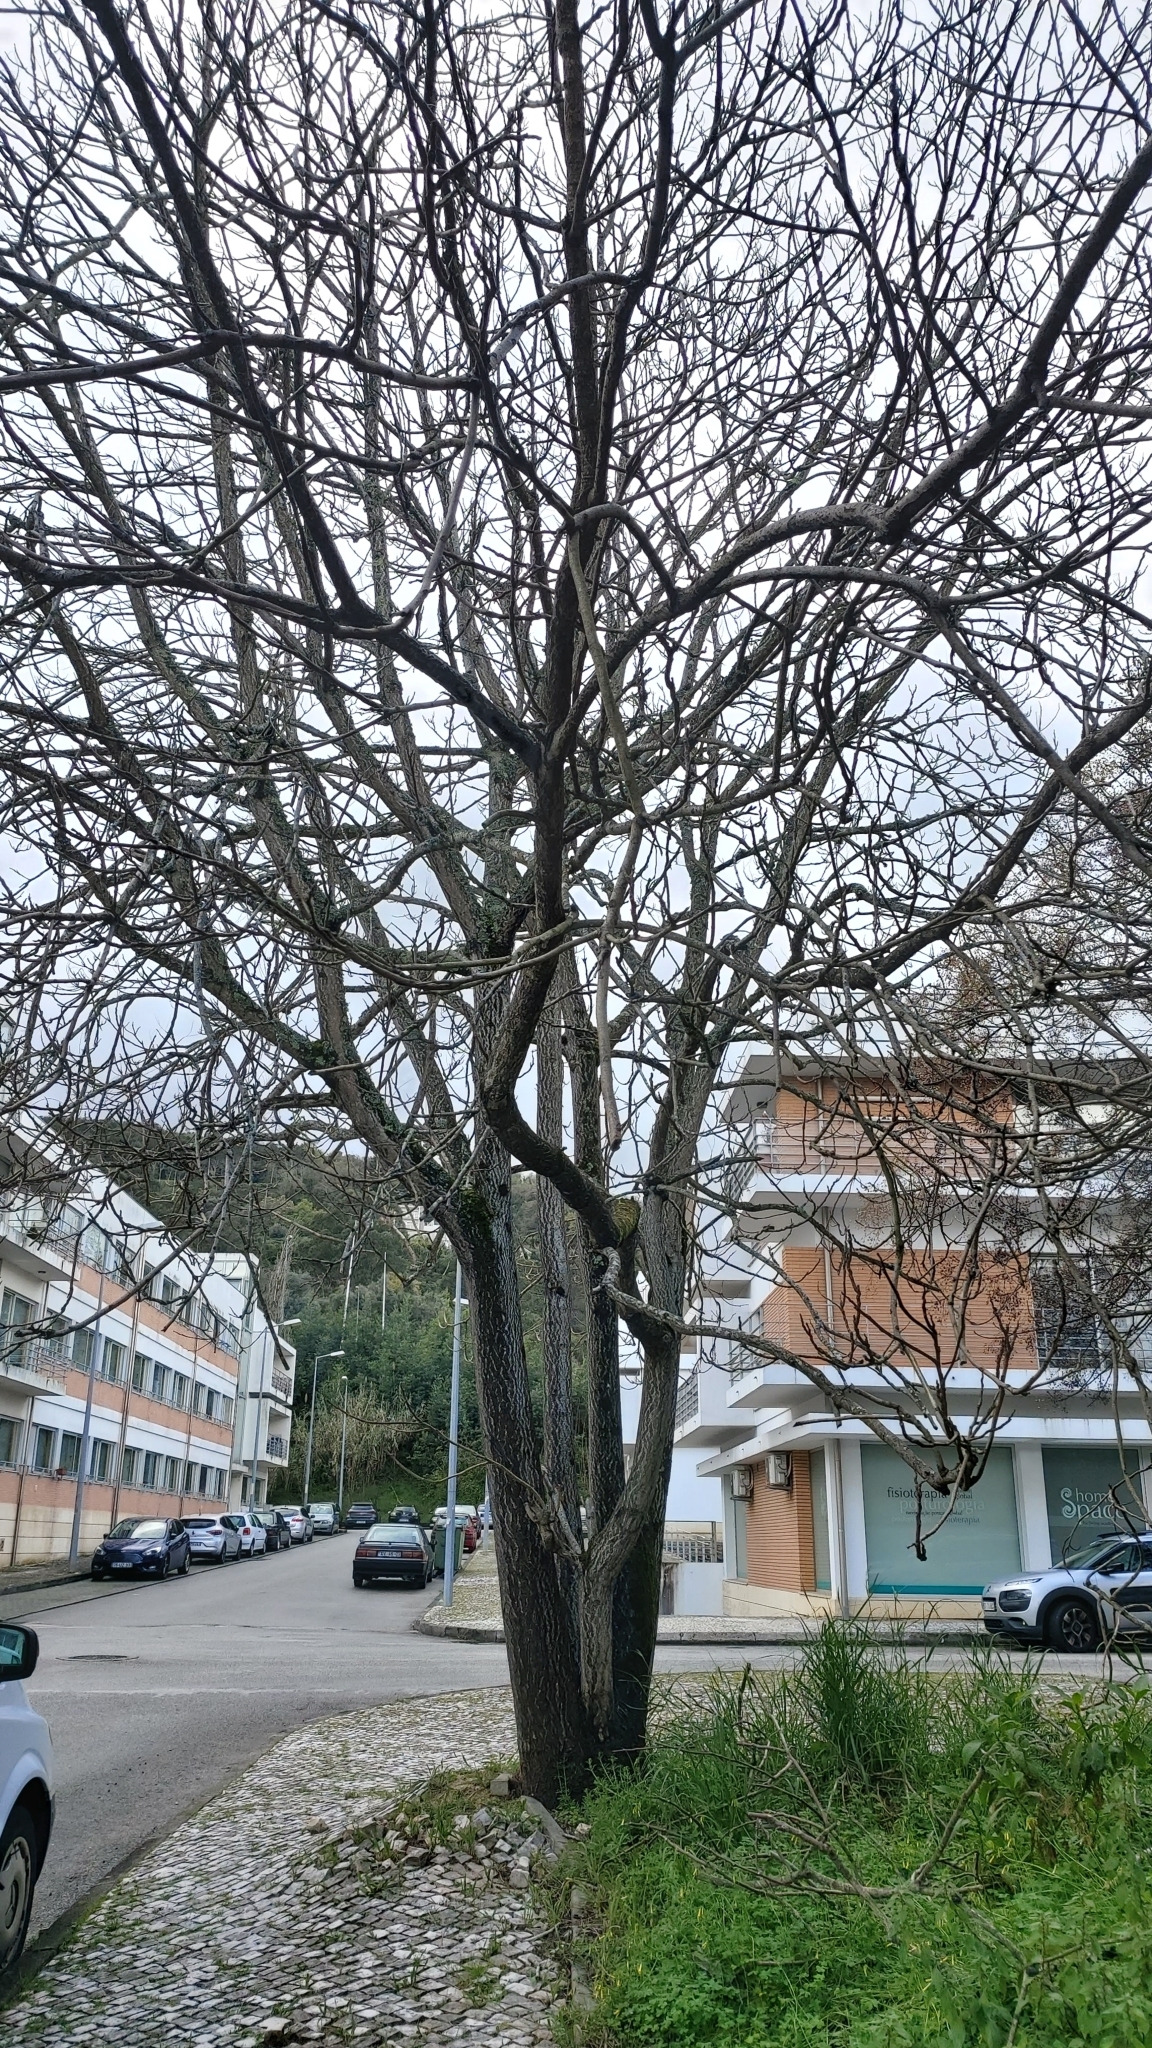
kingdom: Plantae
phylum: Tracheophyta
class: Magnoliopsida
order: Sapindales
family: Simaroubaceae
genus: Ailanthus
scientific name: Ailanthus altissima
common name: Tree-of-heaven
